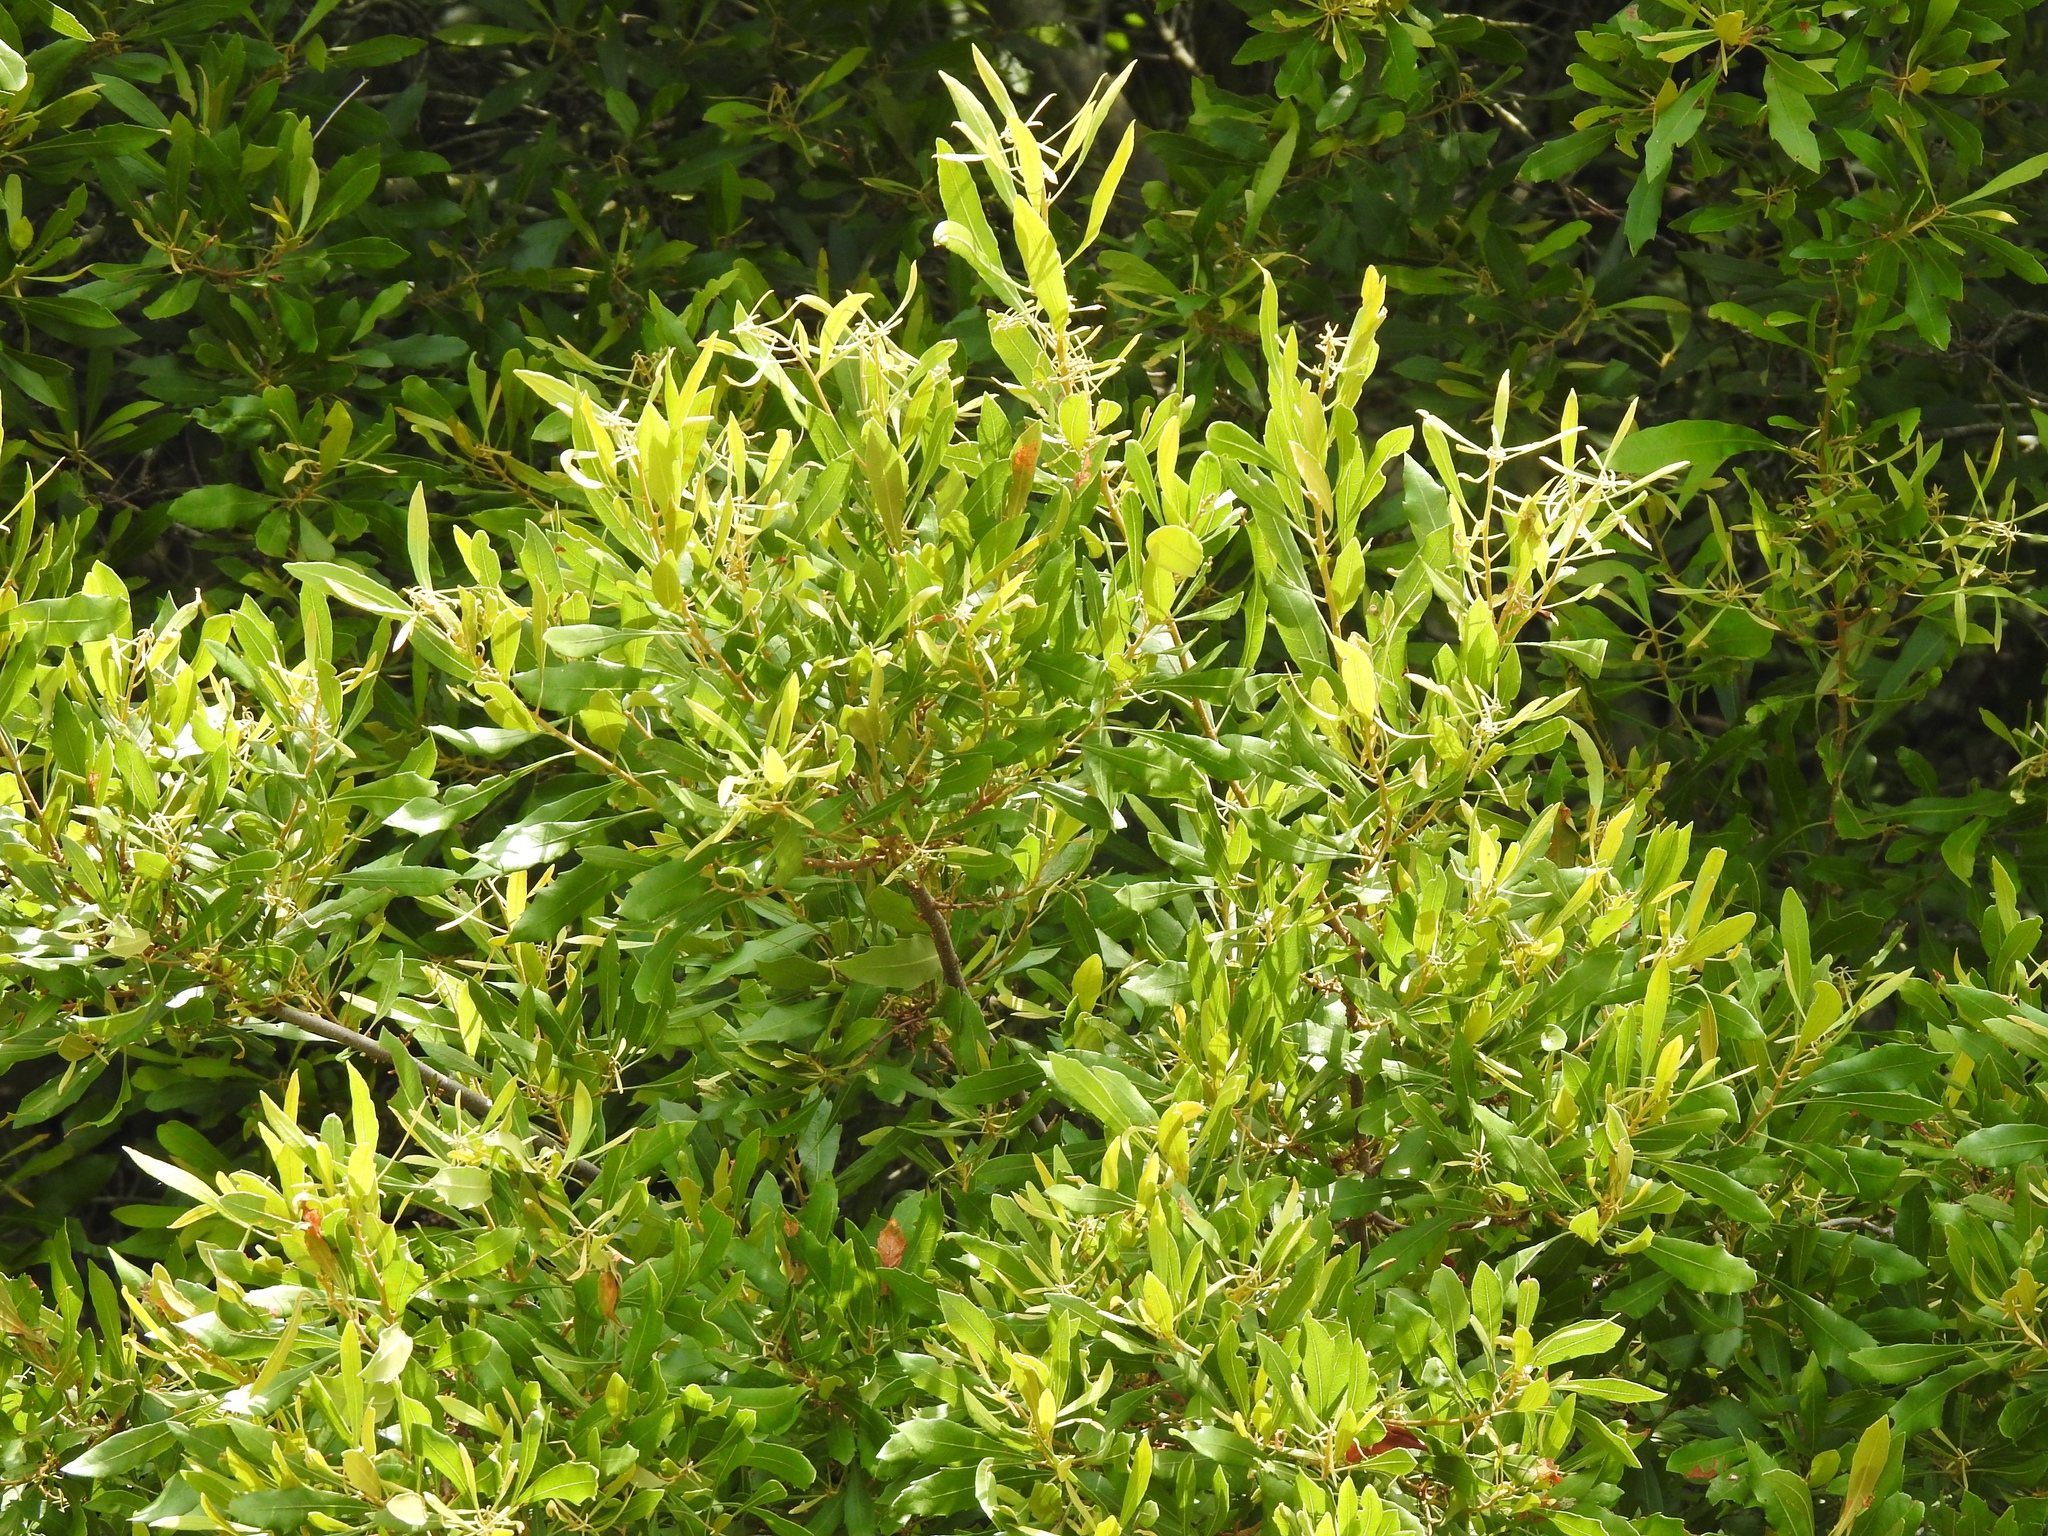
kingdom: Plantae
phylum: Tracheophyta
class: Magnoliopsida
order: Fagales
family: Myricaceae
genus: Morella
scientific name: Morella cerifera
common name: Wax myrtle
